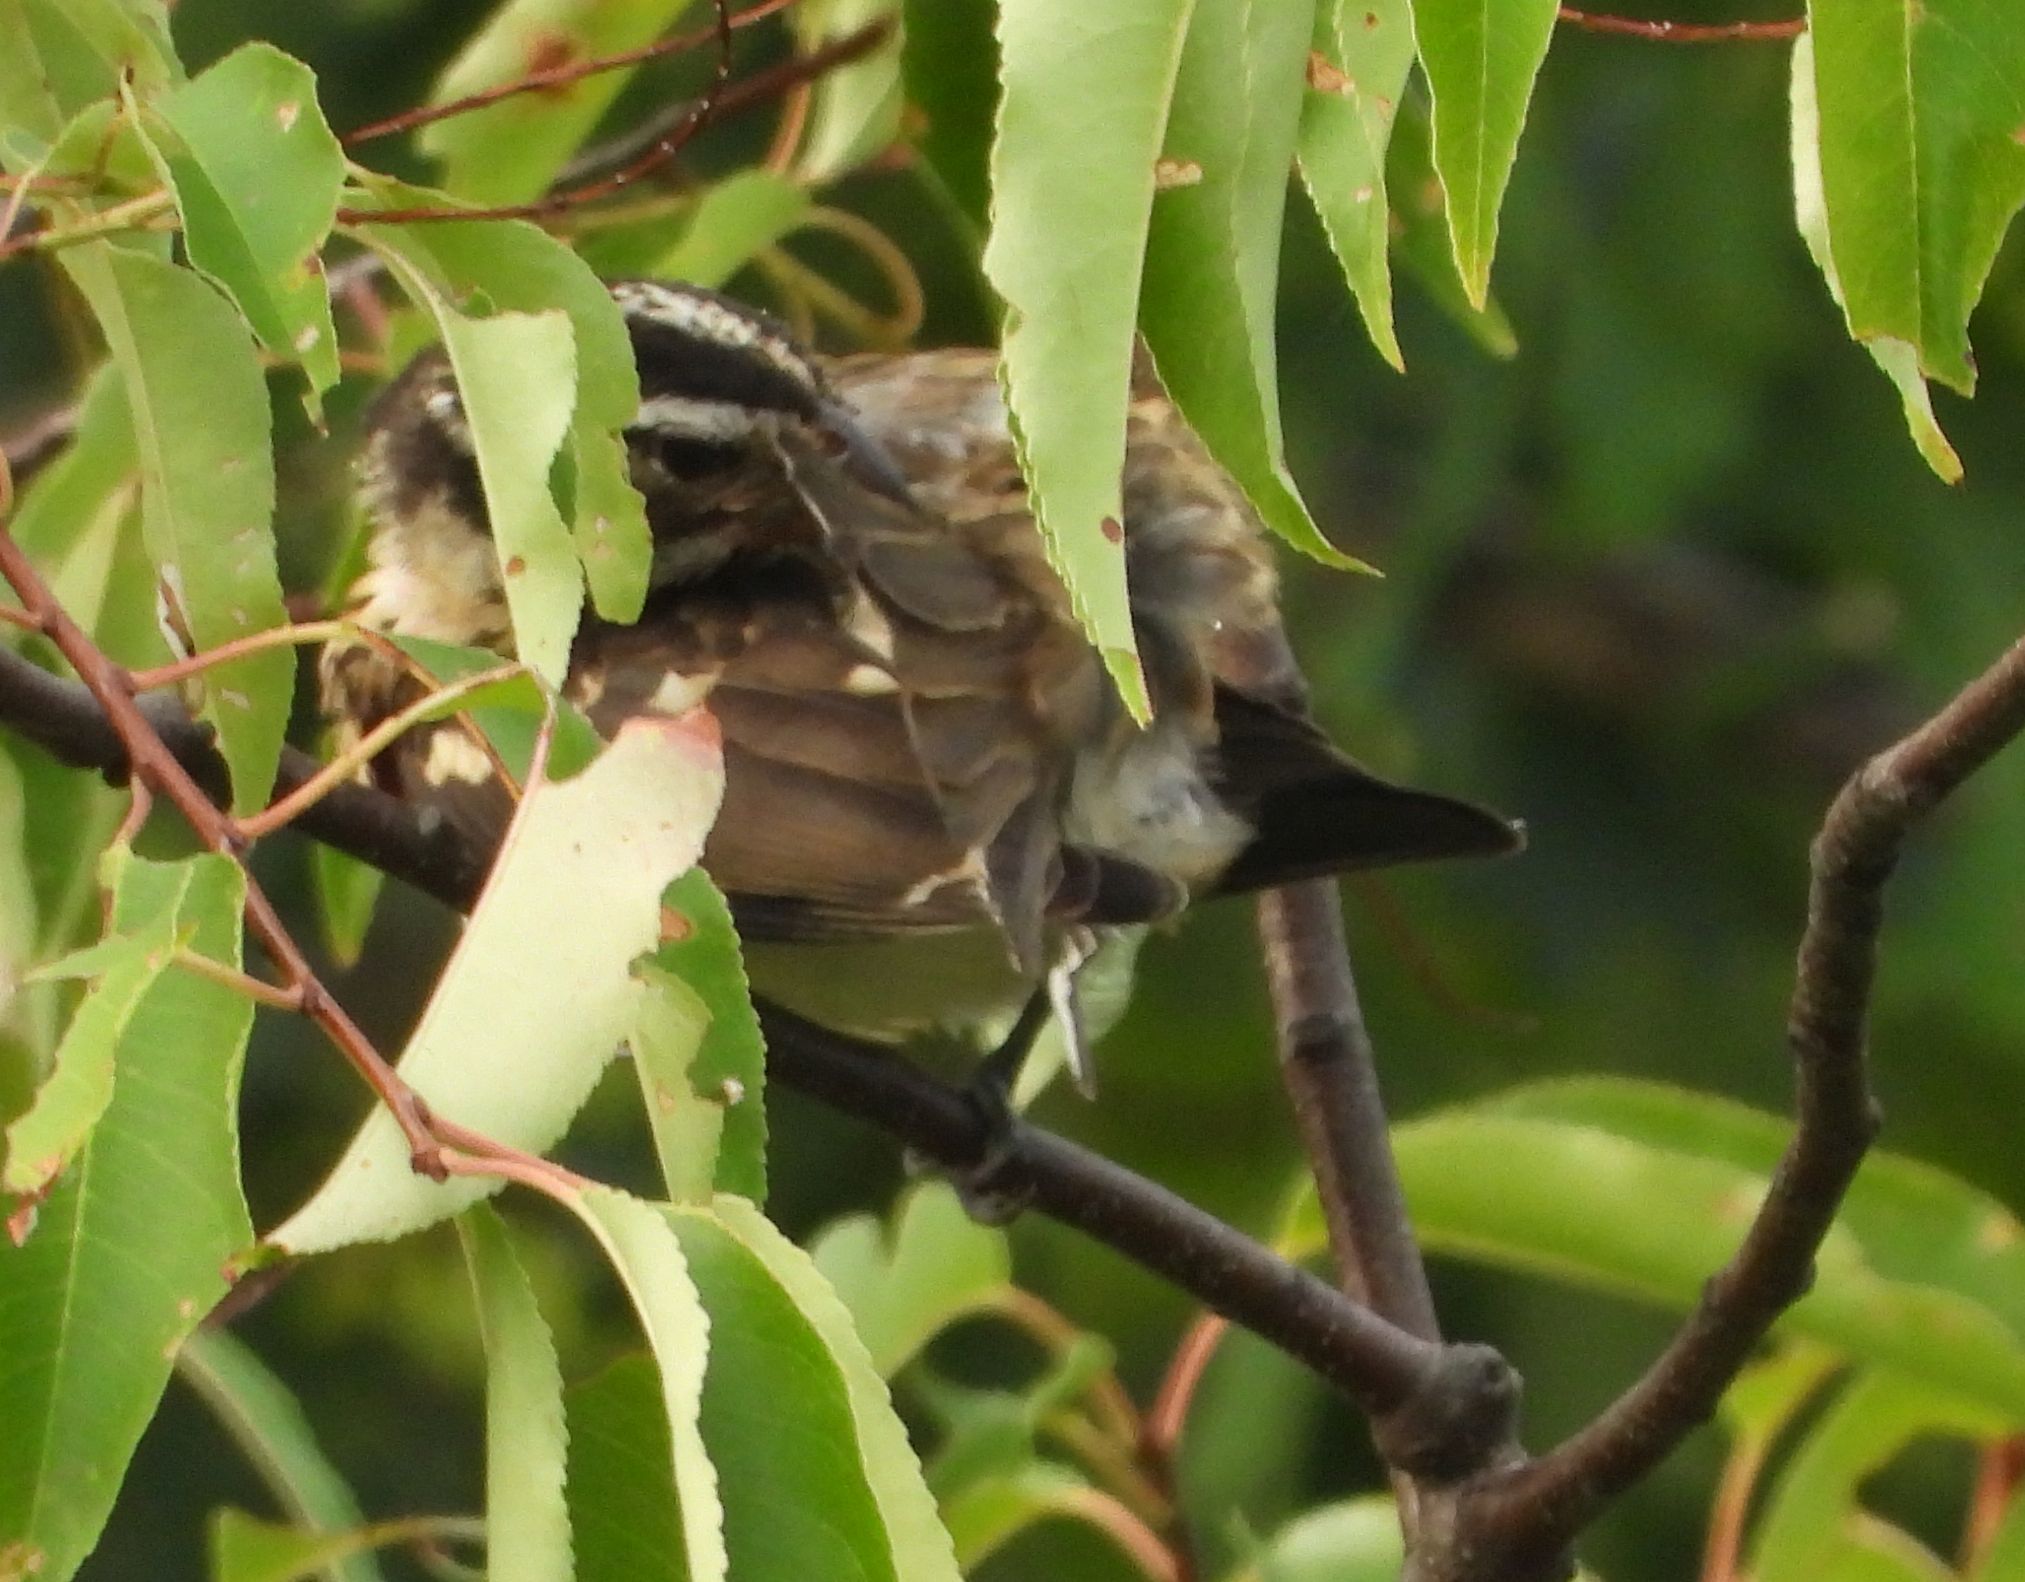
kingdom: Animalia
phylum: Chordata
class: Aves
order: Passeriformes
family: Cardinalidae
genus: Pheucticus
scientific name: Pheucticus ludovicianus
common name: Rose-breasted grosbeak
